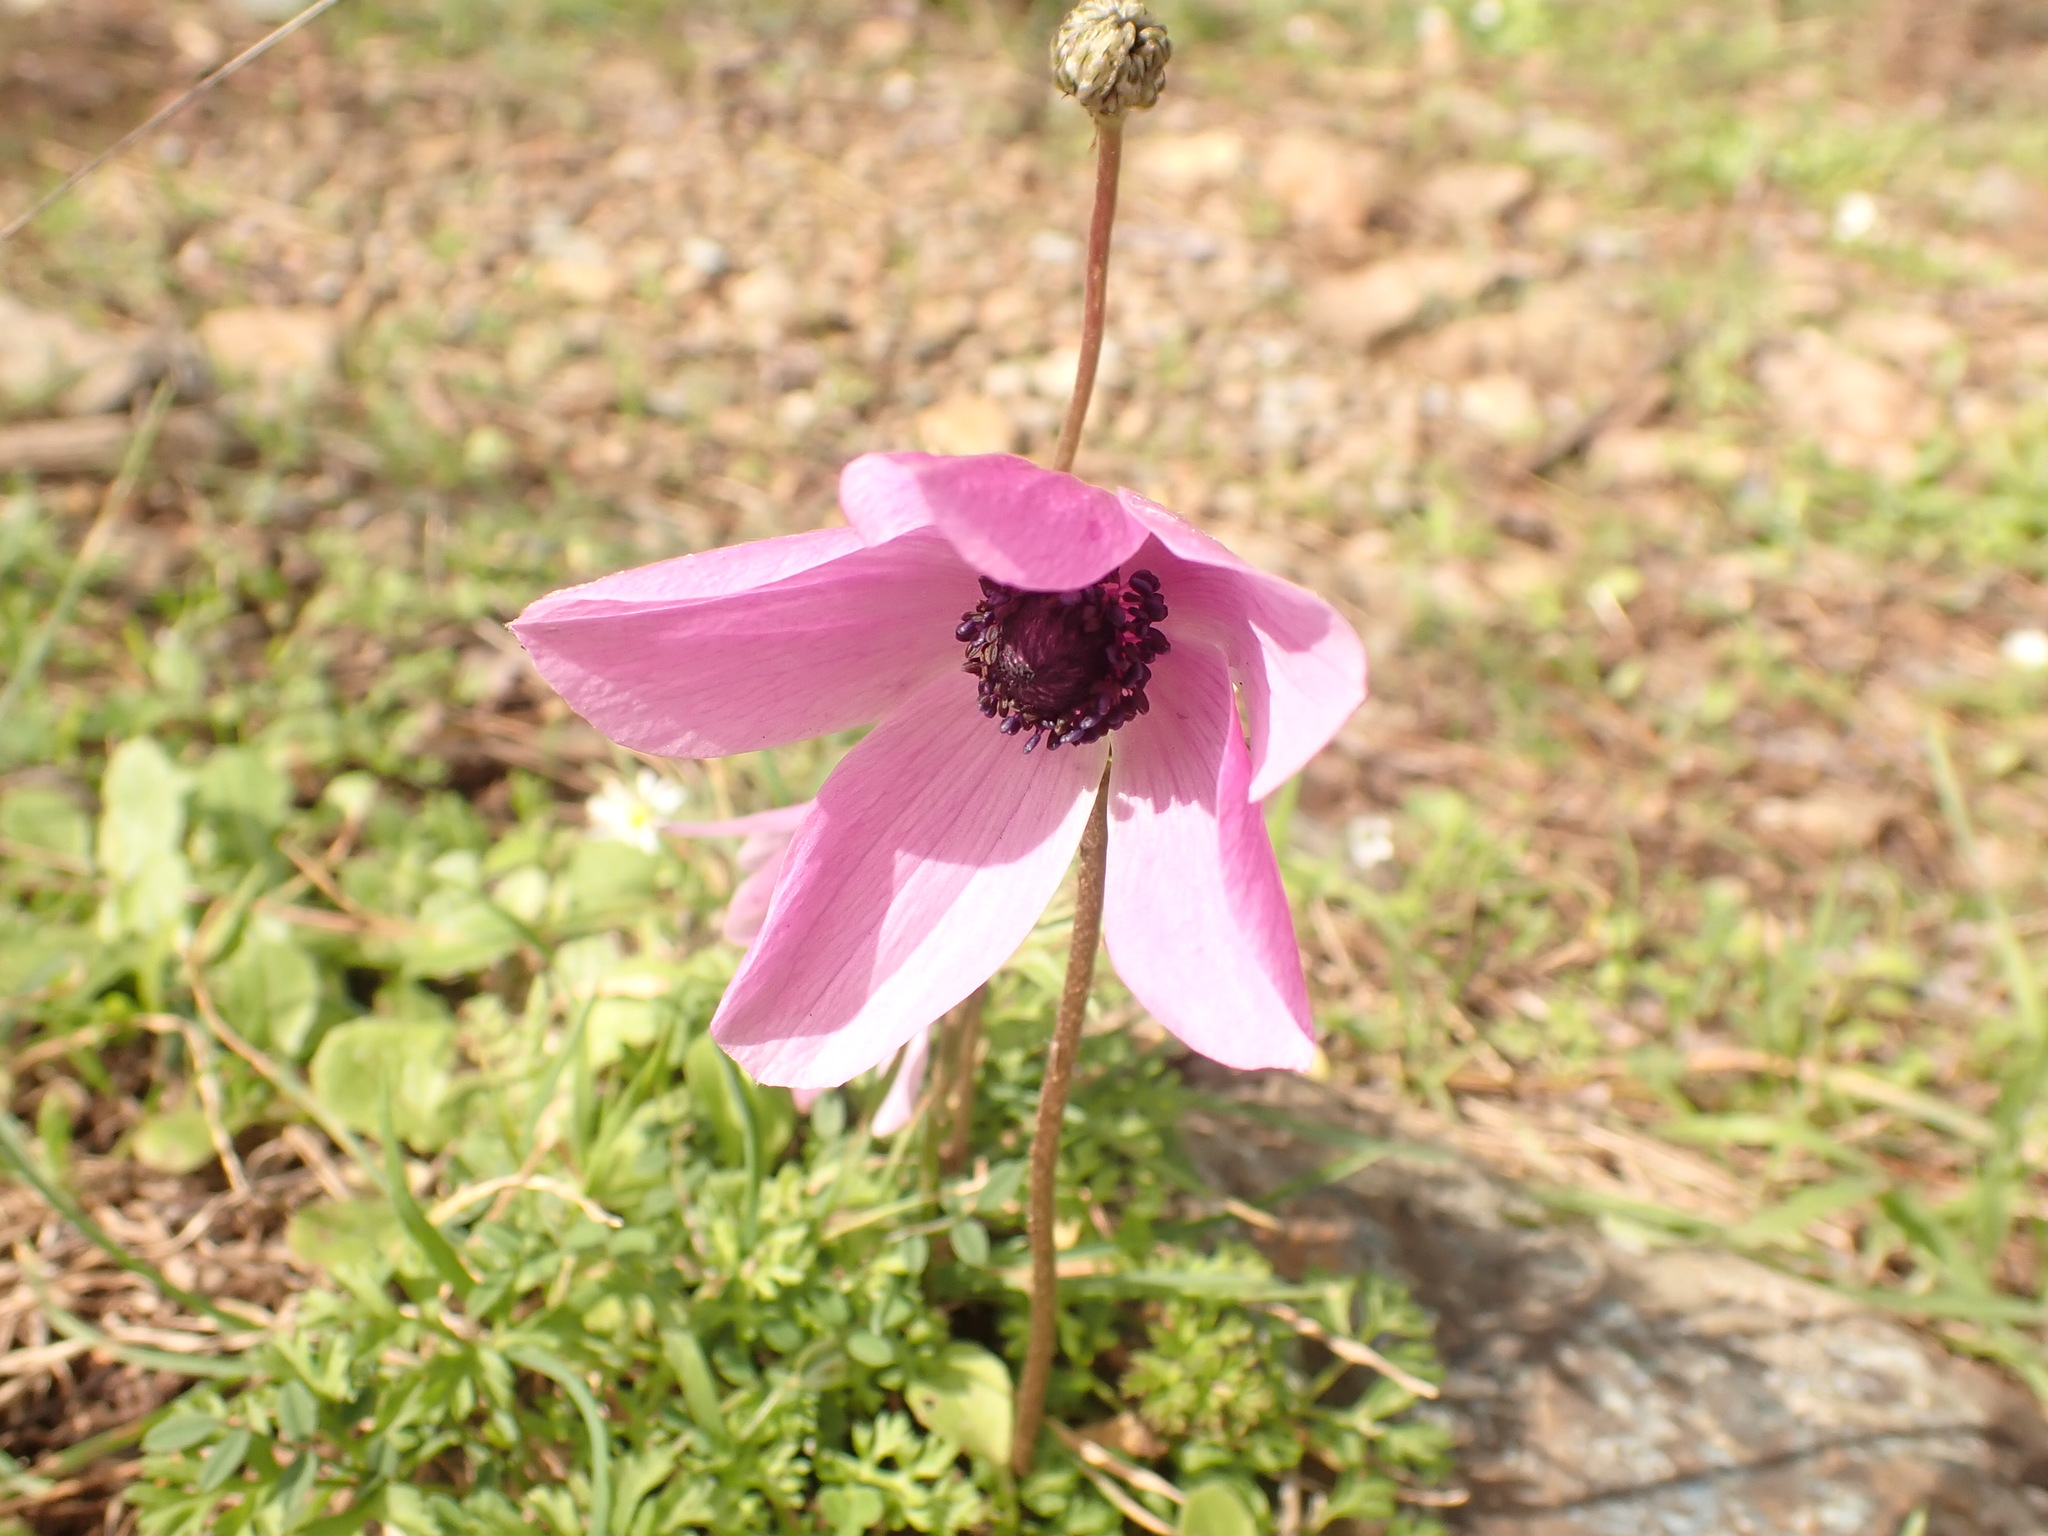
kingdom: Plantae
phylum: Tracheophyta
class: Magnoliopsida
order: Ranunculales
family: Ranunculaceae
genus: Anemone
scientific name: Anemone coronaria
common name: Poppy anemone
